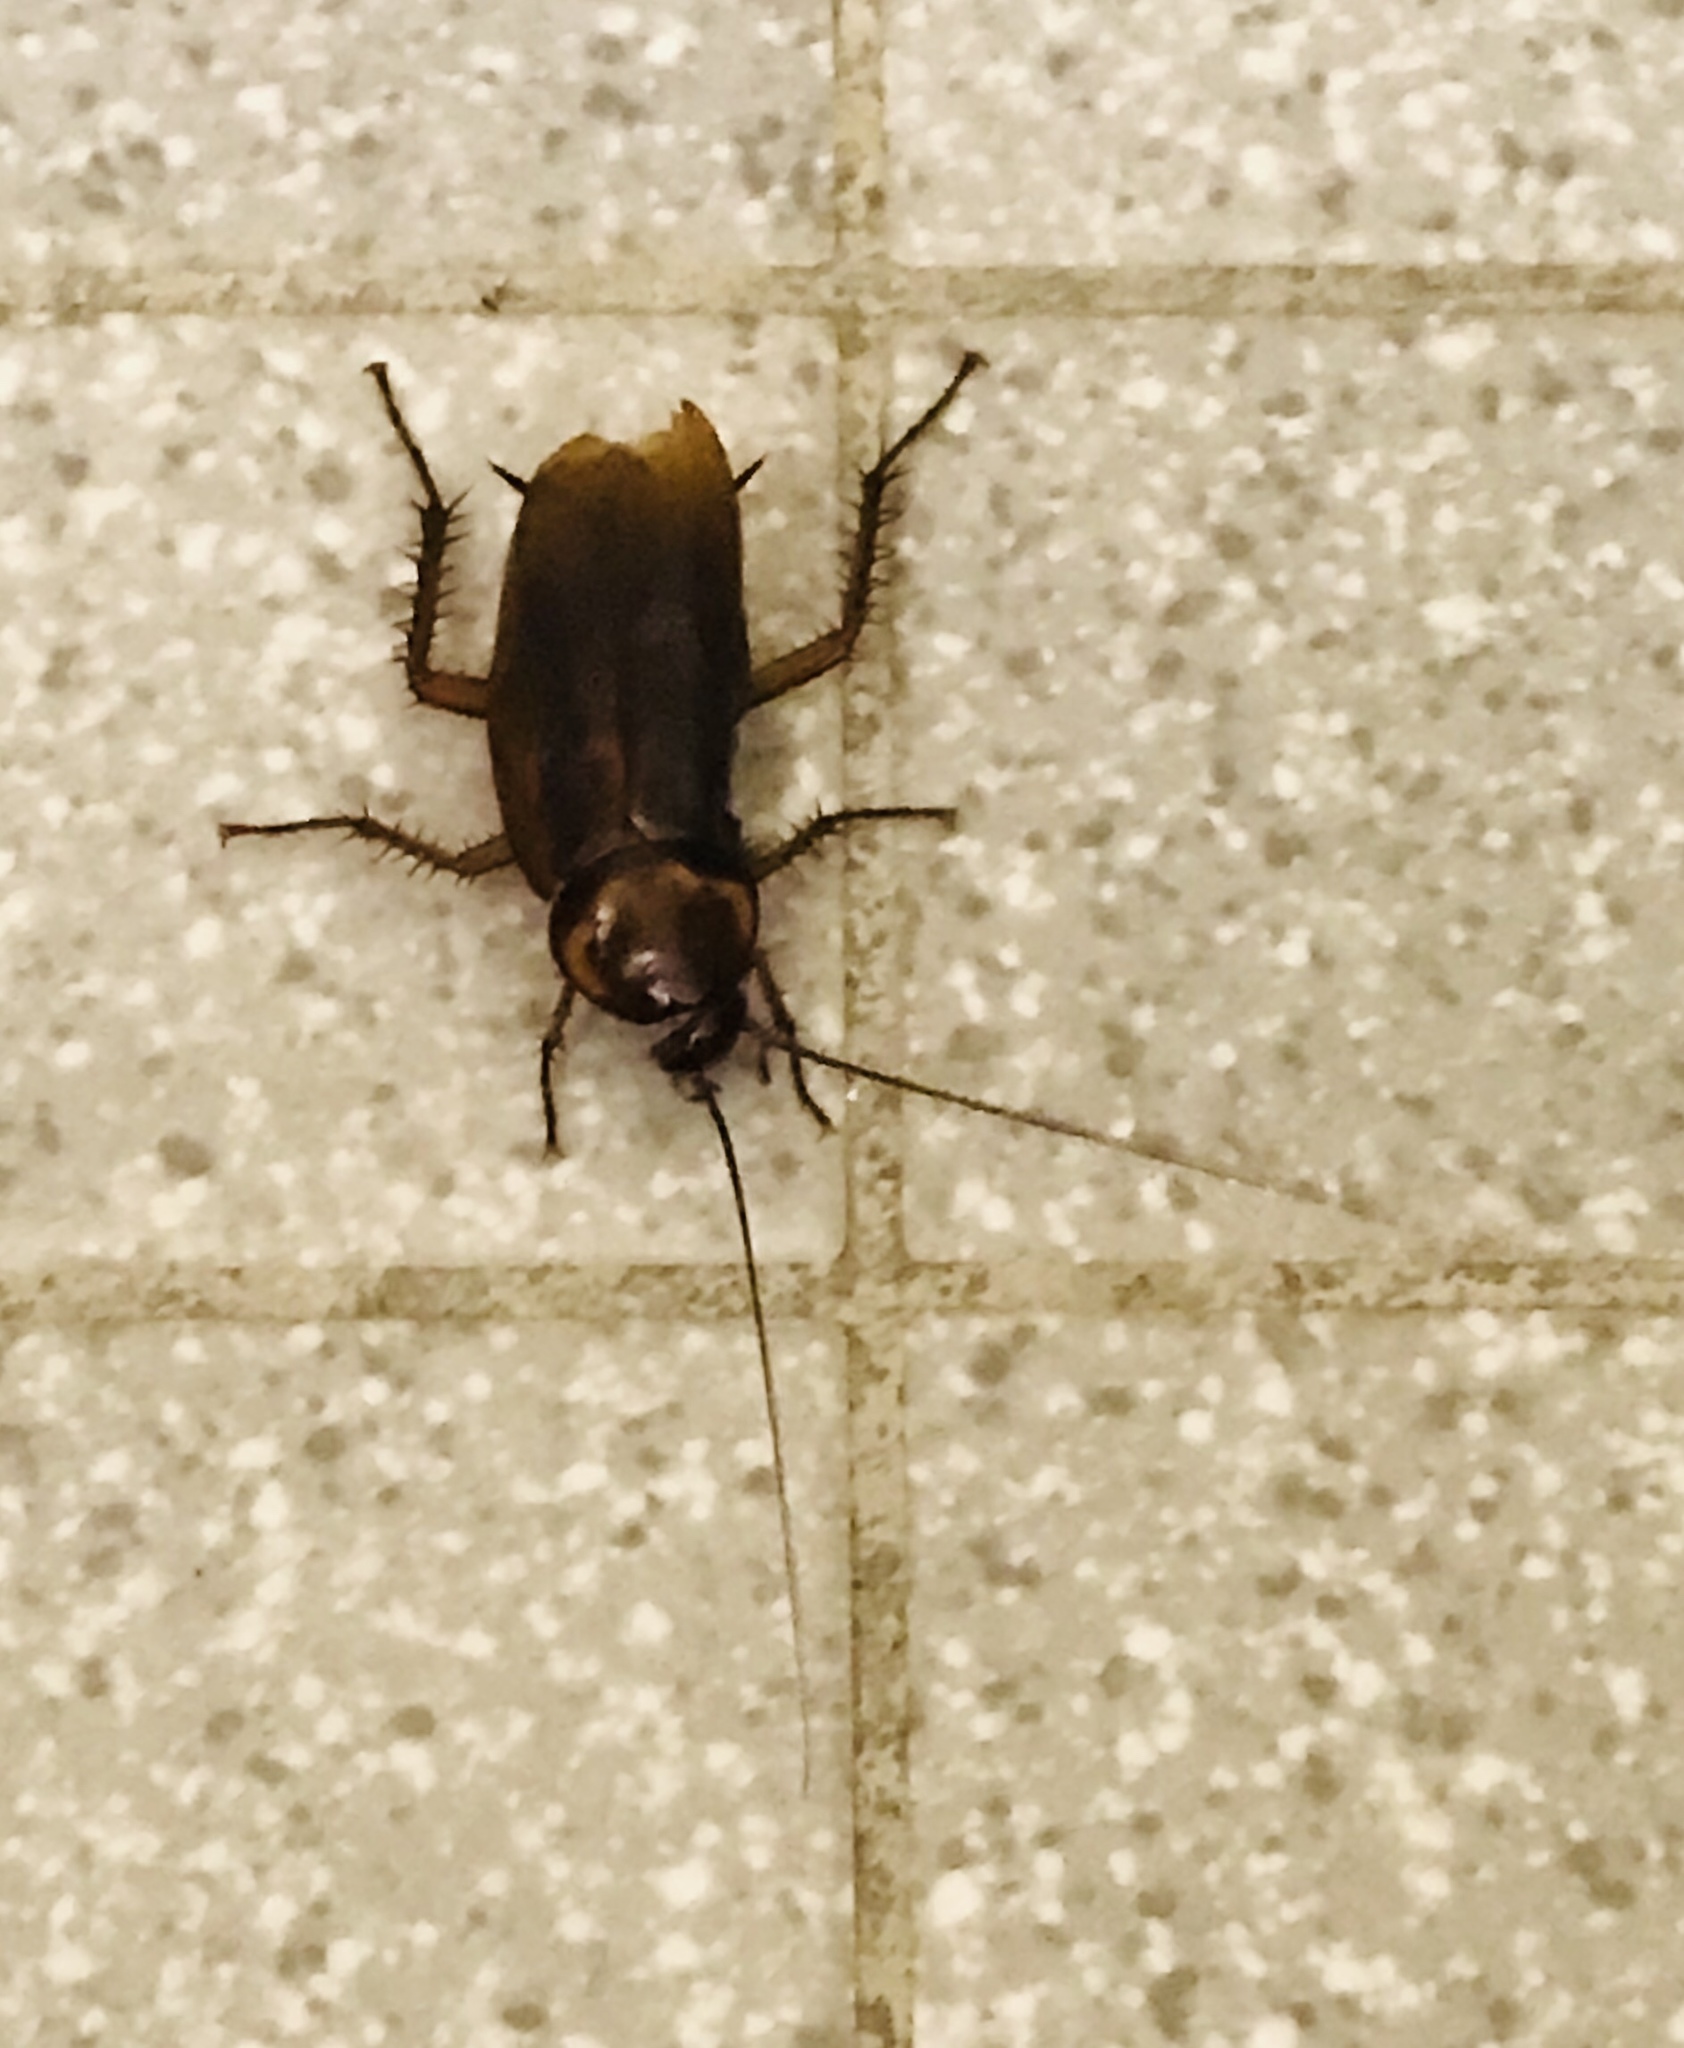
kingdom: Animalia
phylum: Arthropoda
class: Insecta
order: Blattodea
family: Blattidae
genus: Periplaneta
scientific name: Periplaneta americana
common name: American cockroach
